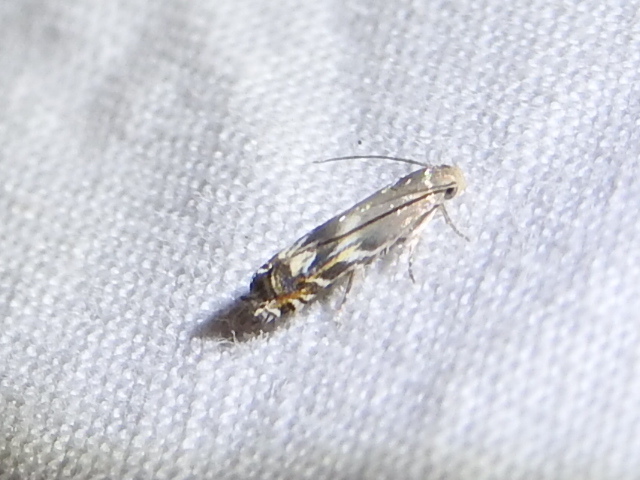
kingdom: Animalia
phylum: Arthropoda
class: Insecta
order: Lepidoptera
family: Gelechiidae
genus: Calliprora
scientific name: Calliprora sexstrigella
